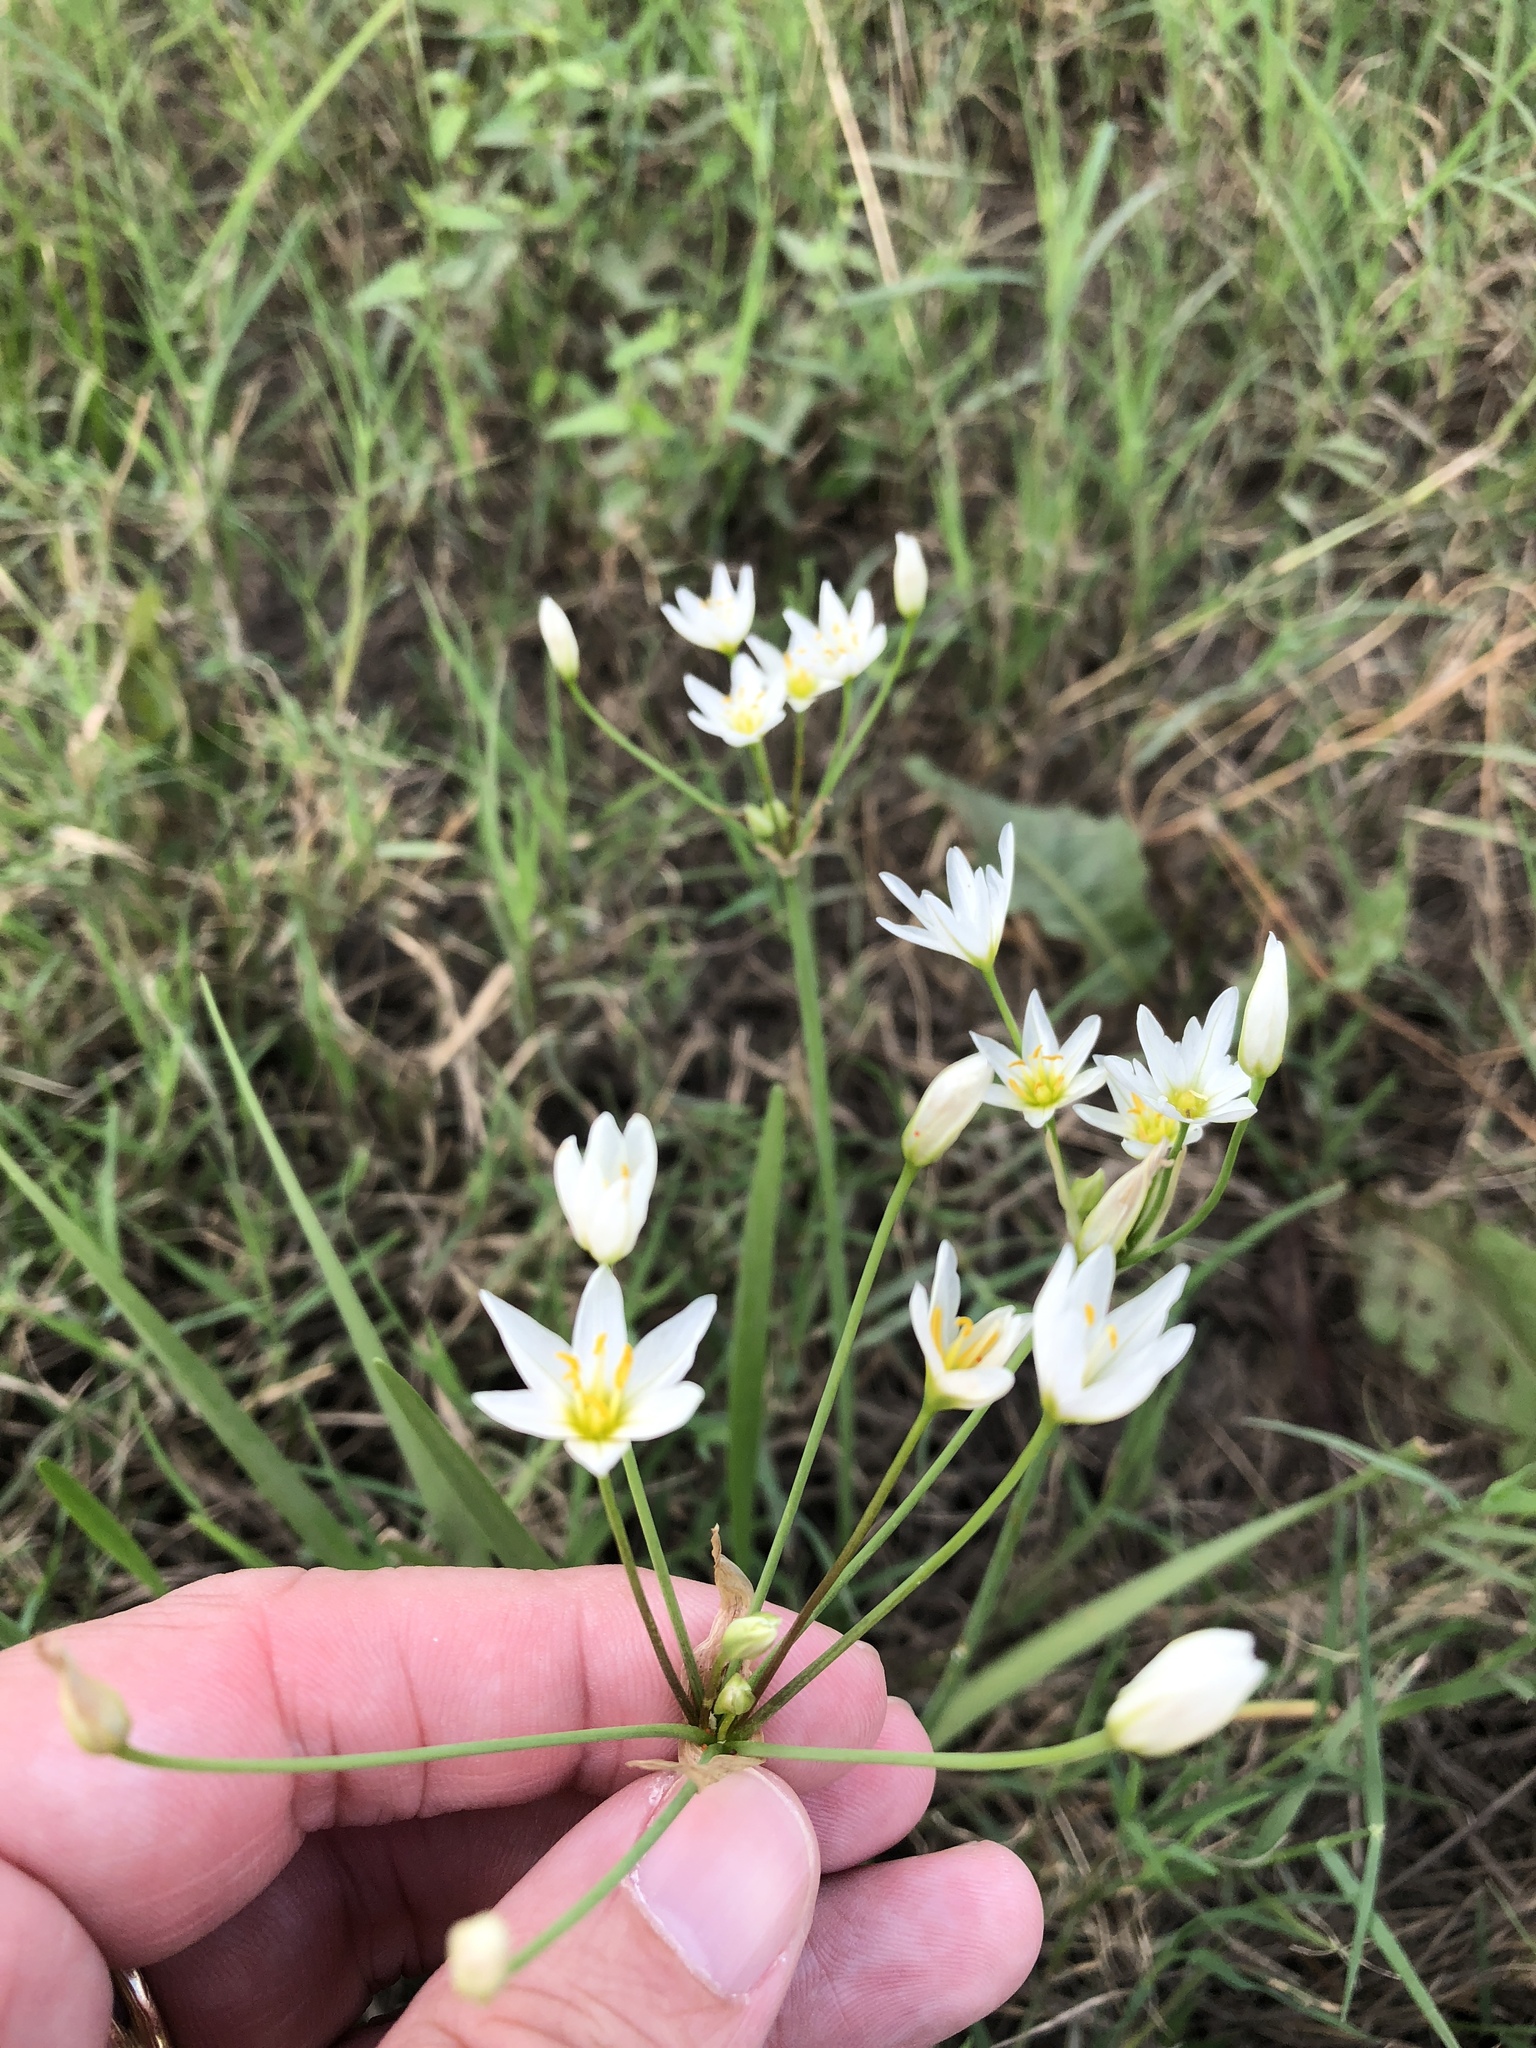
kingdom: Plantae
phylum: Tracheophyta
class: Liliopsida
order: Asparagales
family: Amaryllidaceae
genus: Nothoscordum
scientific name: Nothoscordum bivalve
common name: Crow-poison
